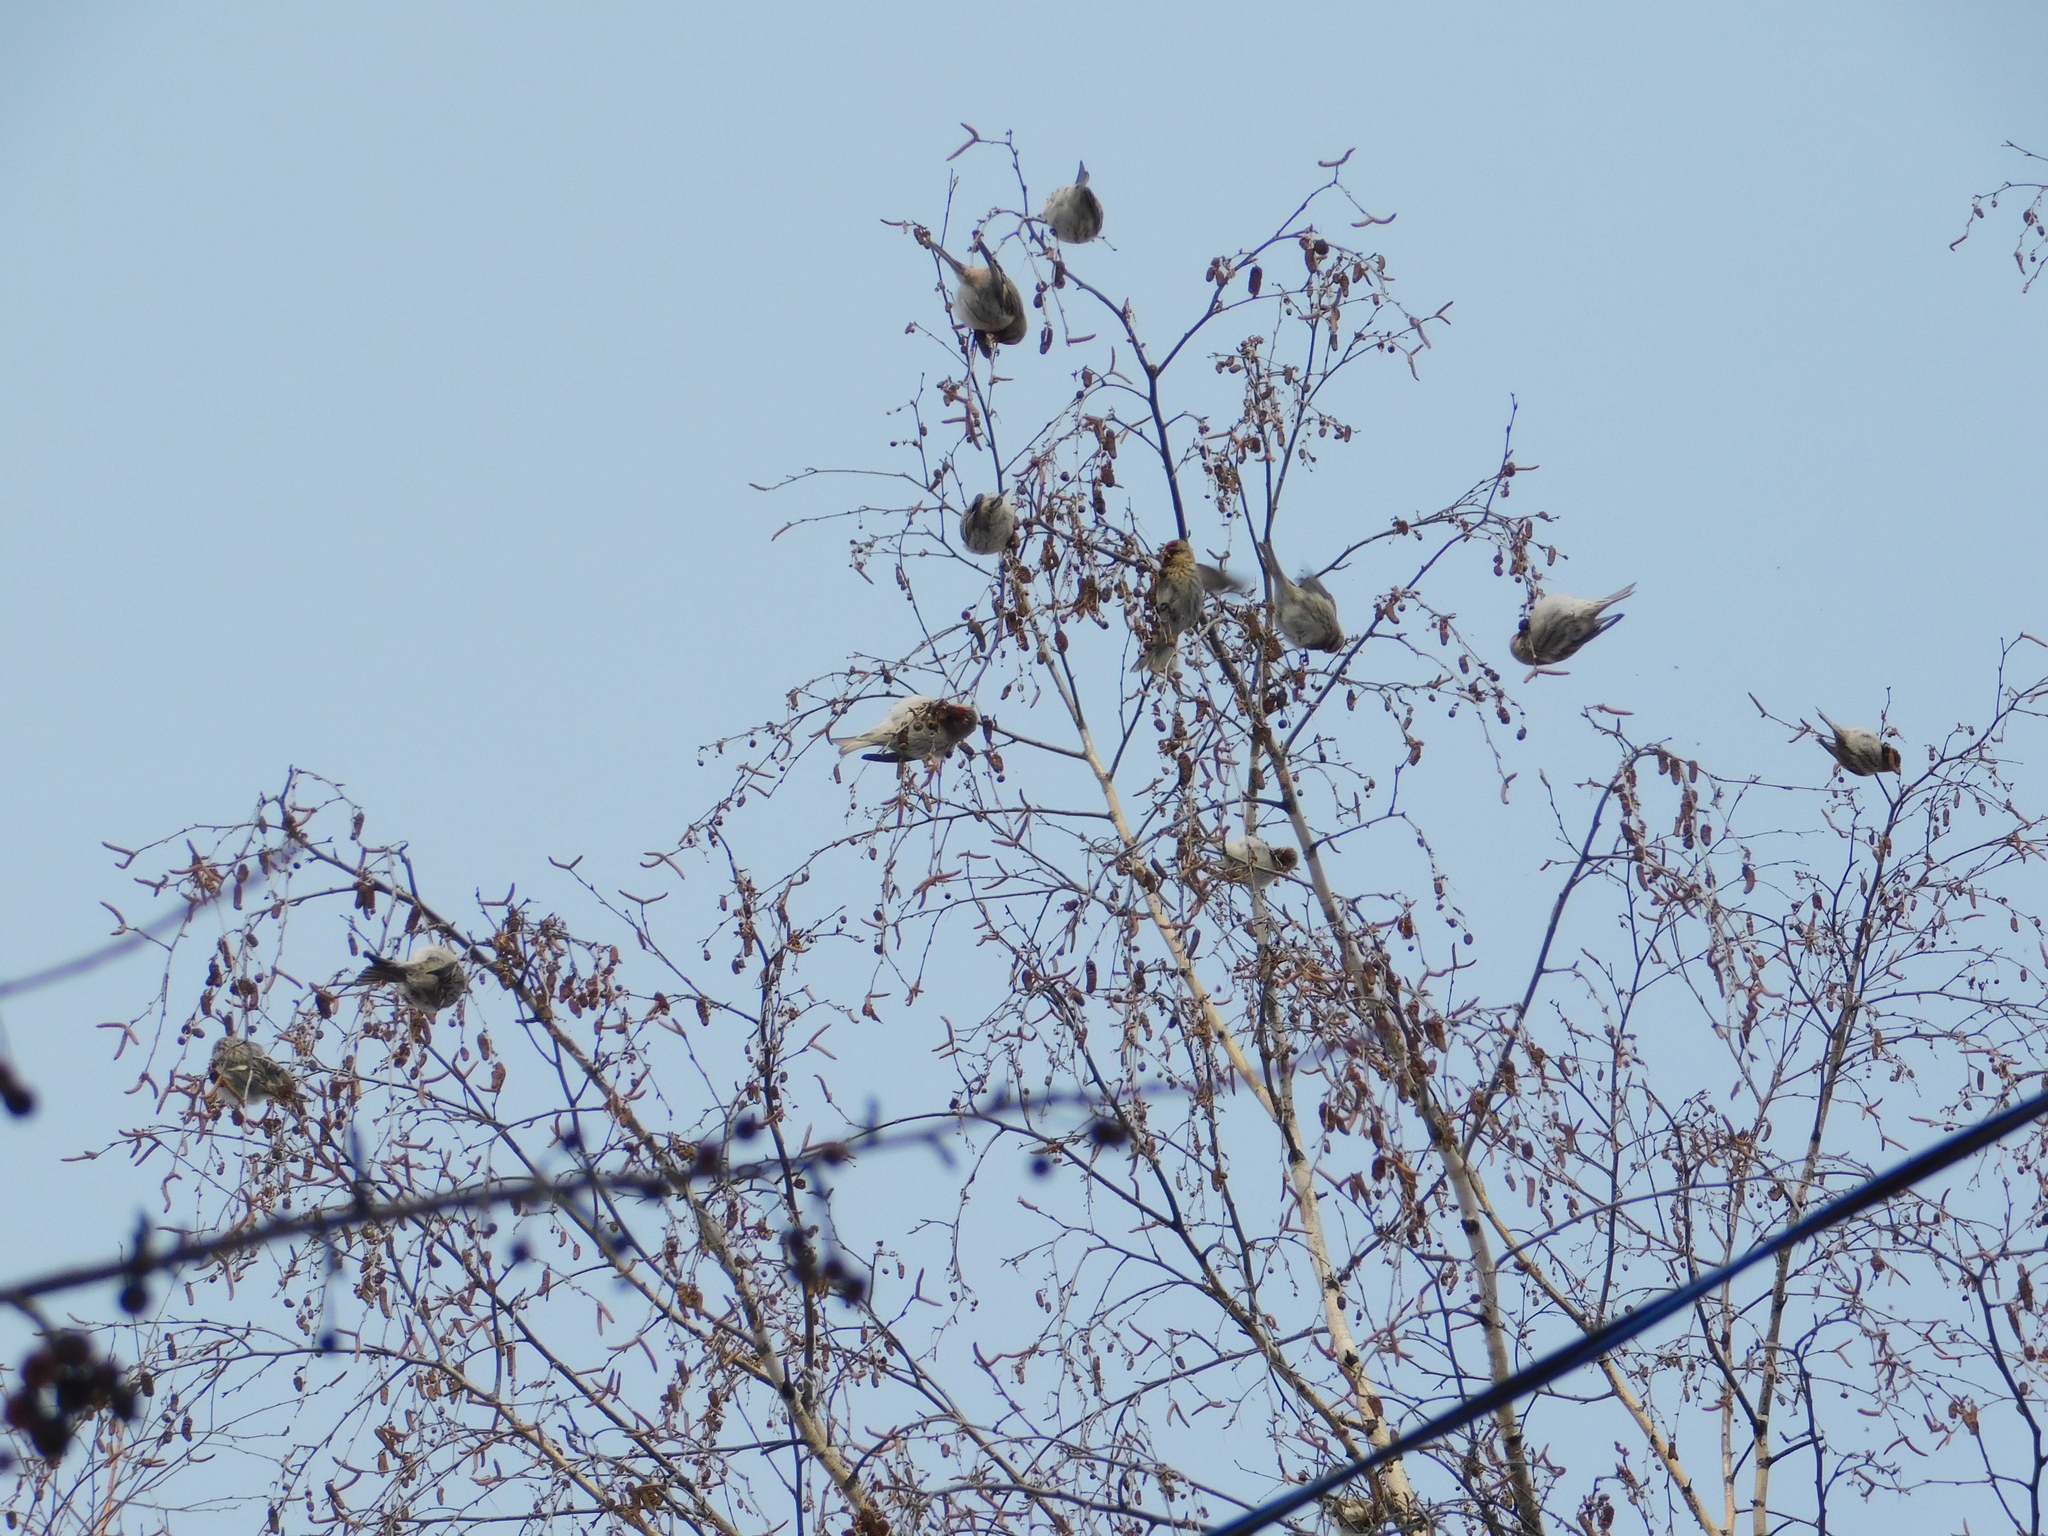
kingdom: Animalia
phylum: Chordata
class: Aves
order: Passeriformes
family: Fringillidae
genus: Acanthis
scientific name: Acanthis flammea
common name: Common redpoll
